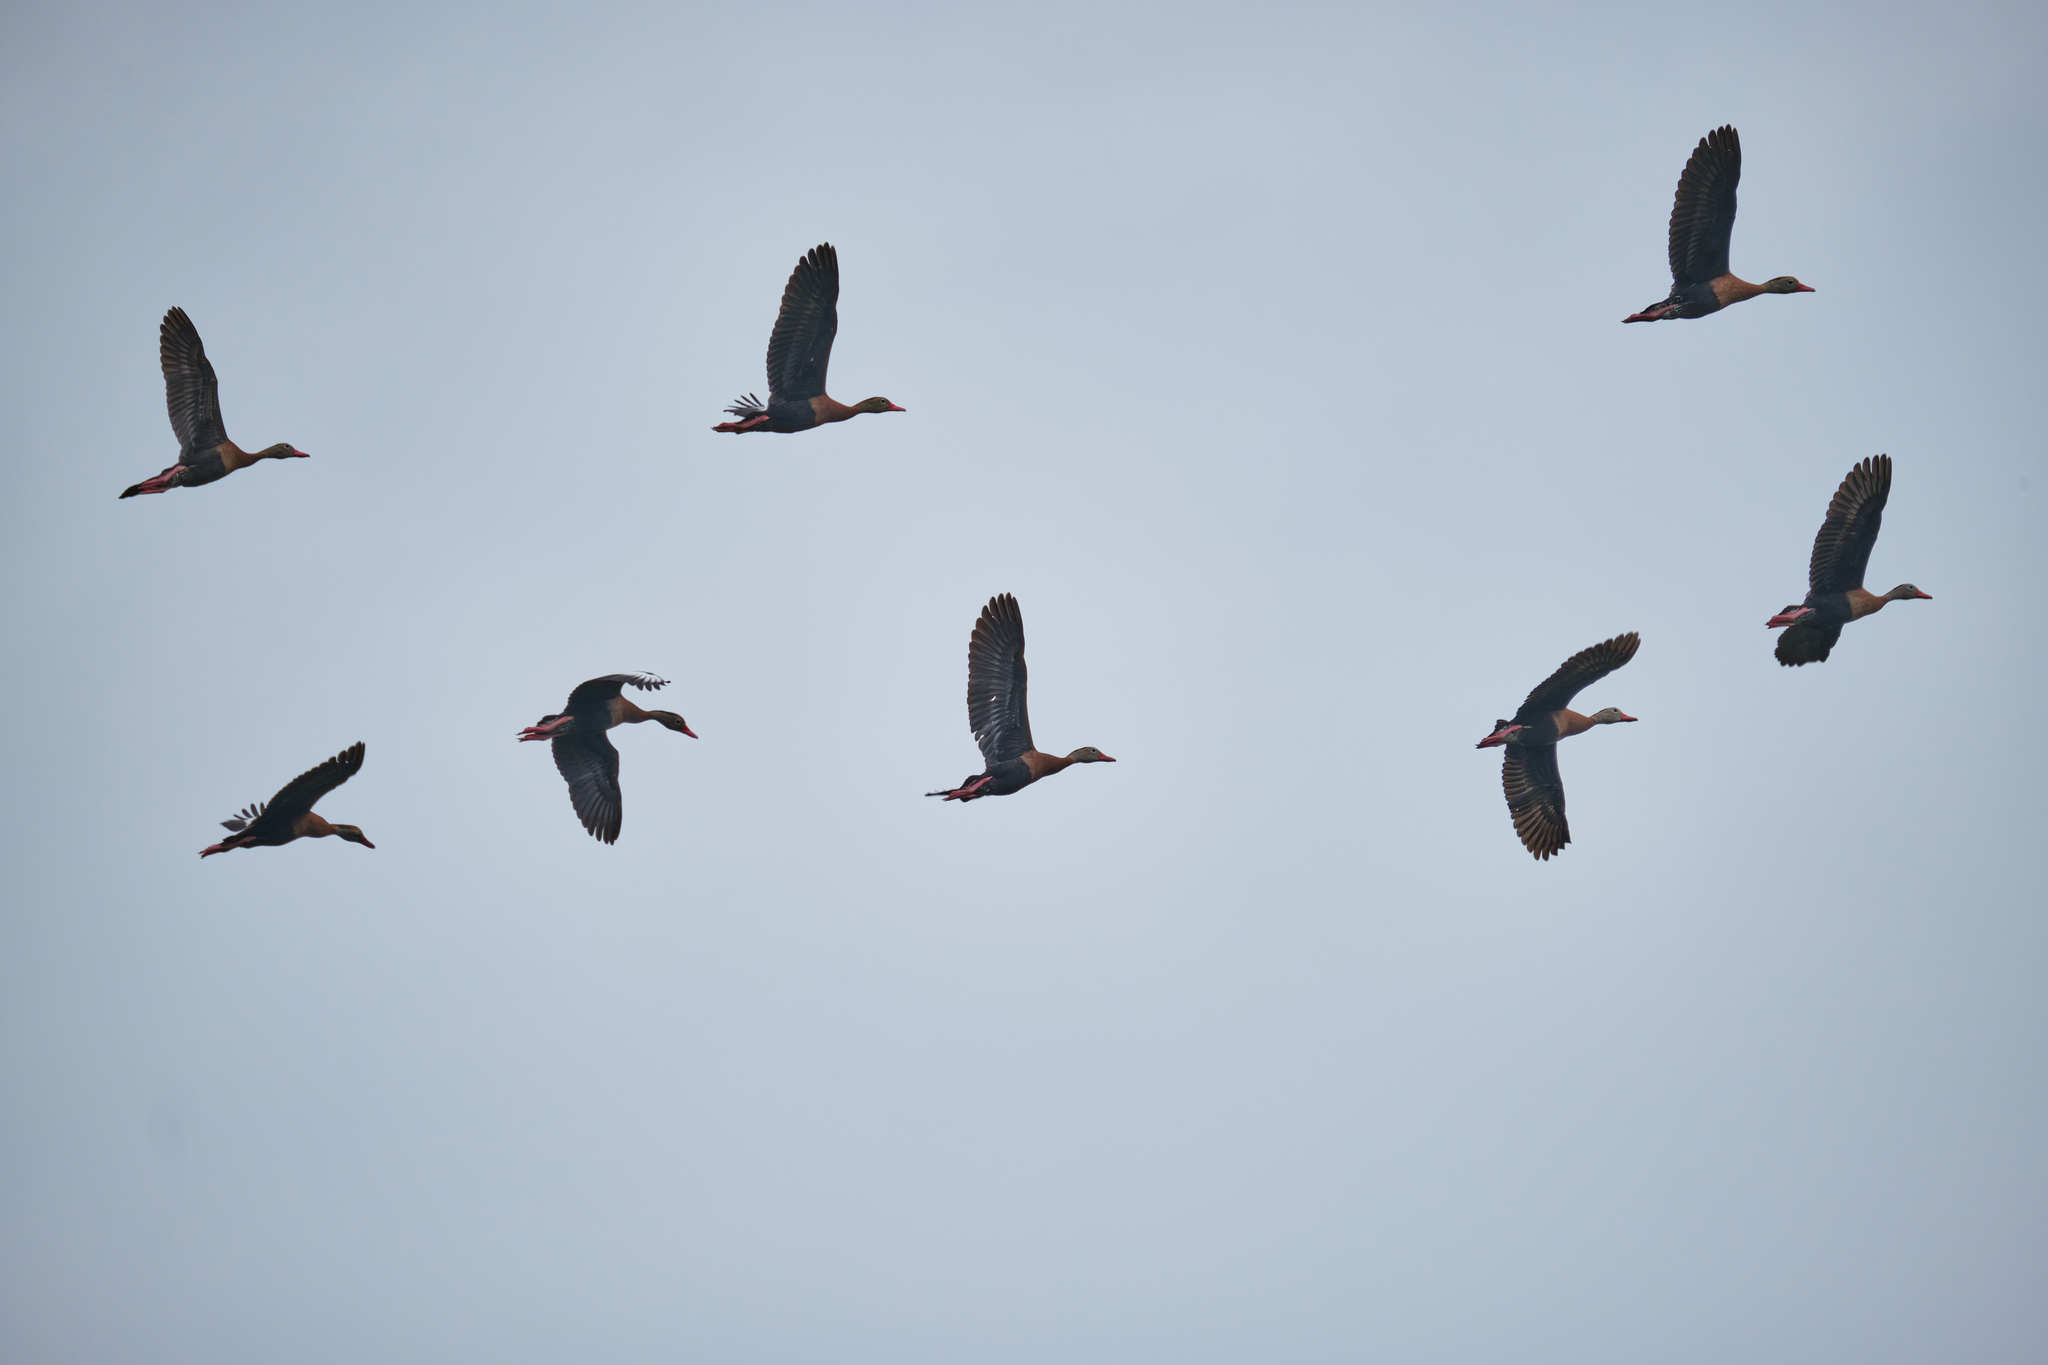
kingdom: Animalia
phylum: Chordata
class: Aves
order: Anseriformes
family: Anatidae
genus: Dendrocygna
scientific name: Dendrocygna autumnalis
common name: Black-bellied whistling duck
